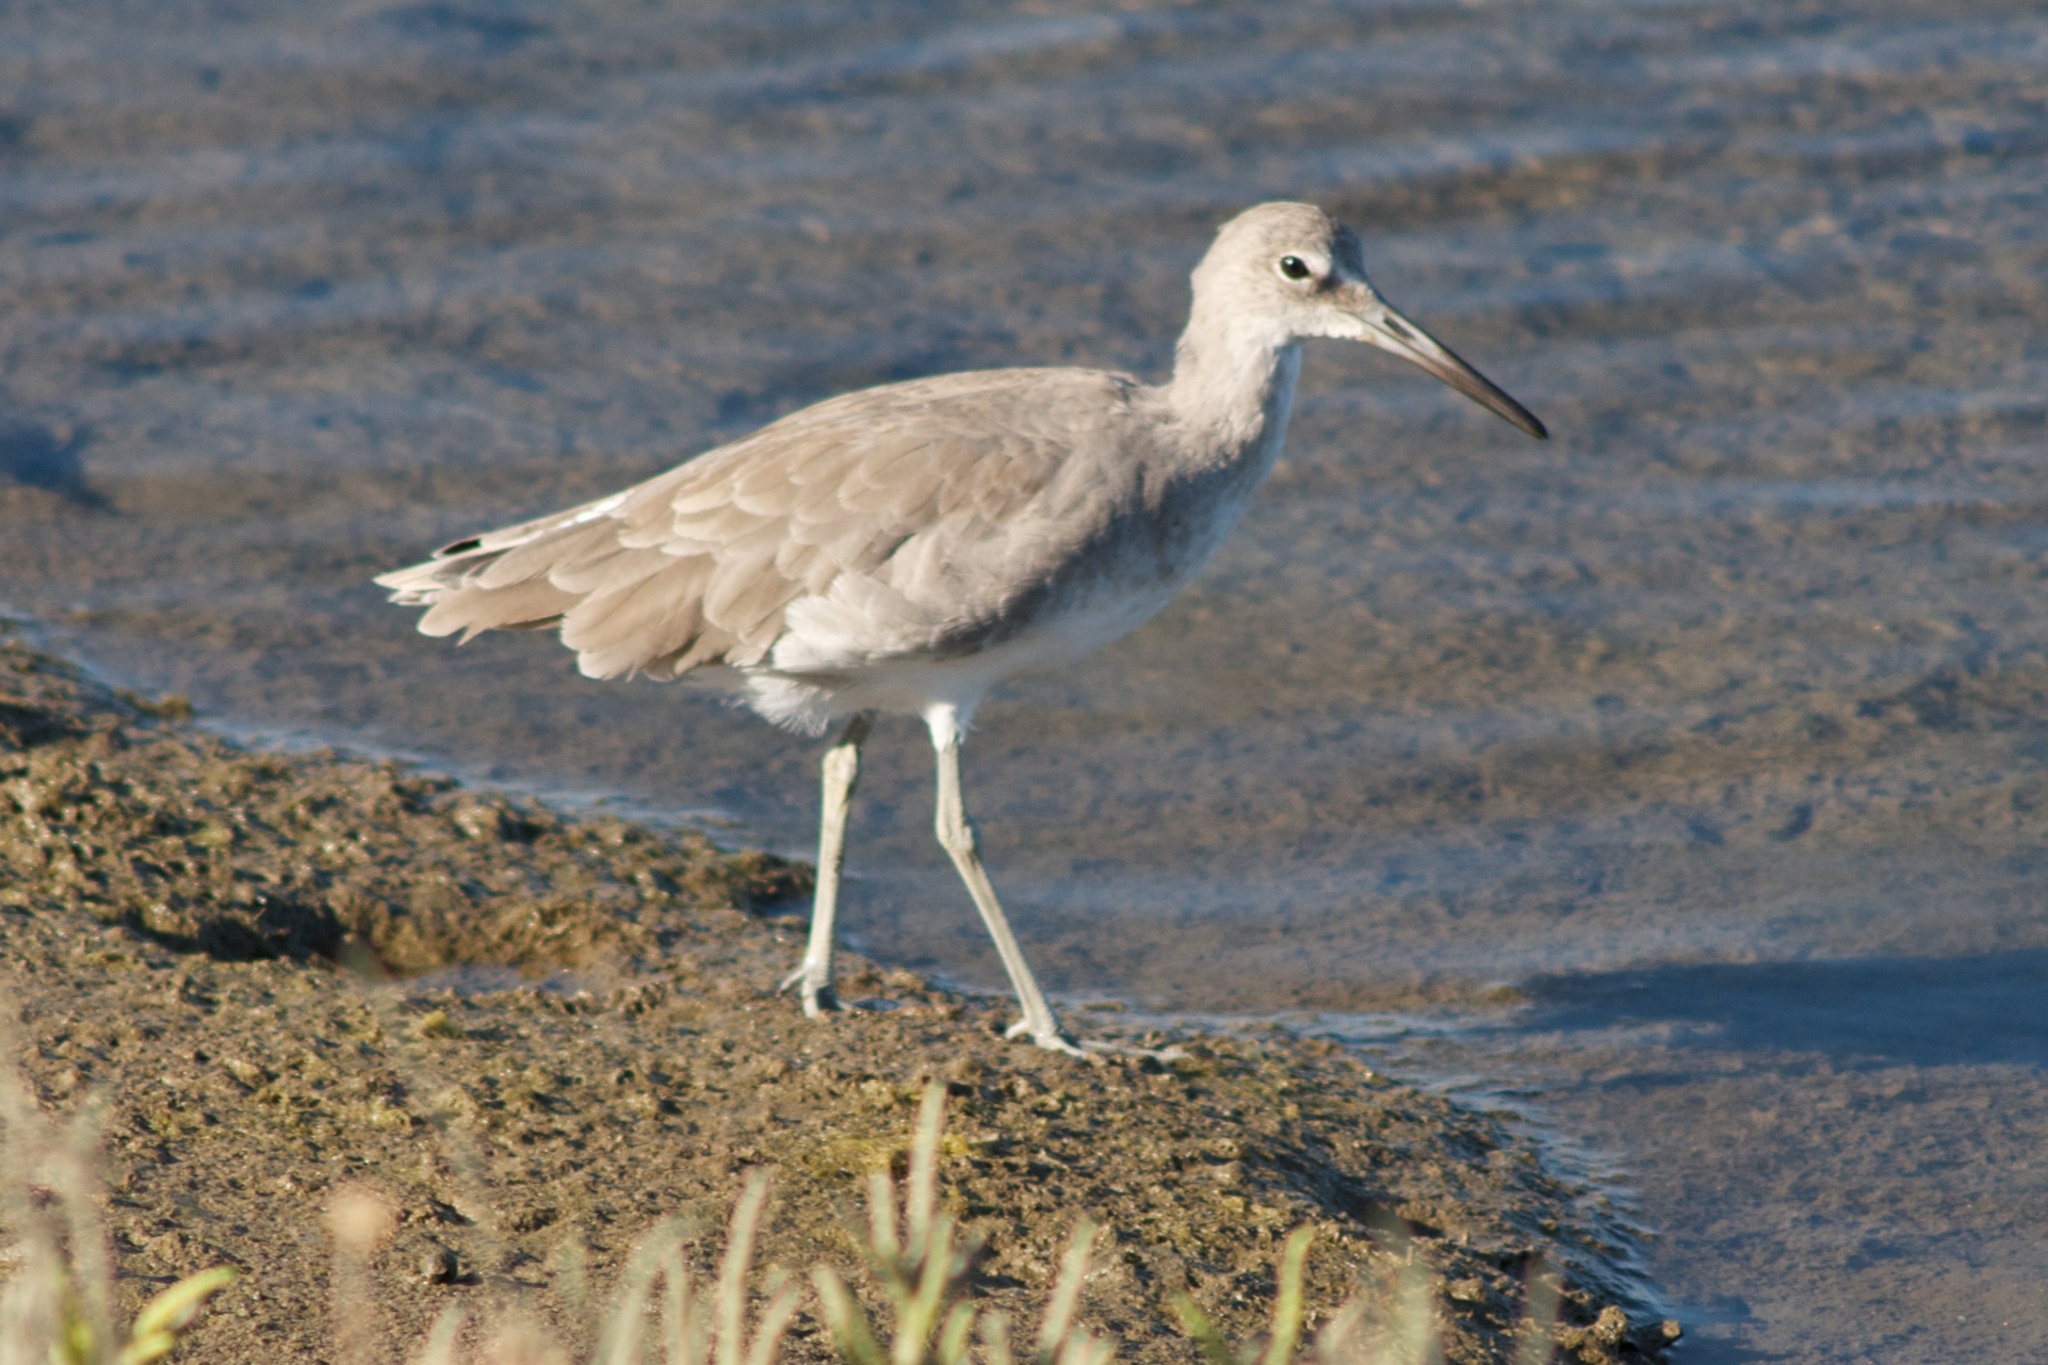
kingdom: Animalia
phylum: Chordata
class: Aves
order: Charadriiformes
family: Scolopacidae
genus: Tringa
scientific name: Tringa semipalmata
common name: Willet
